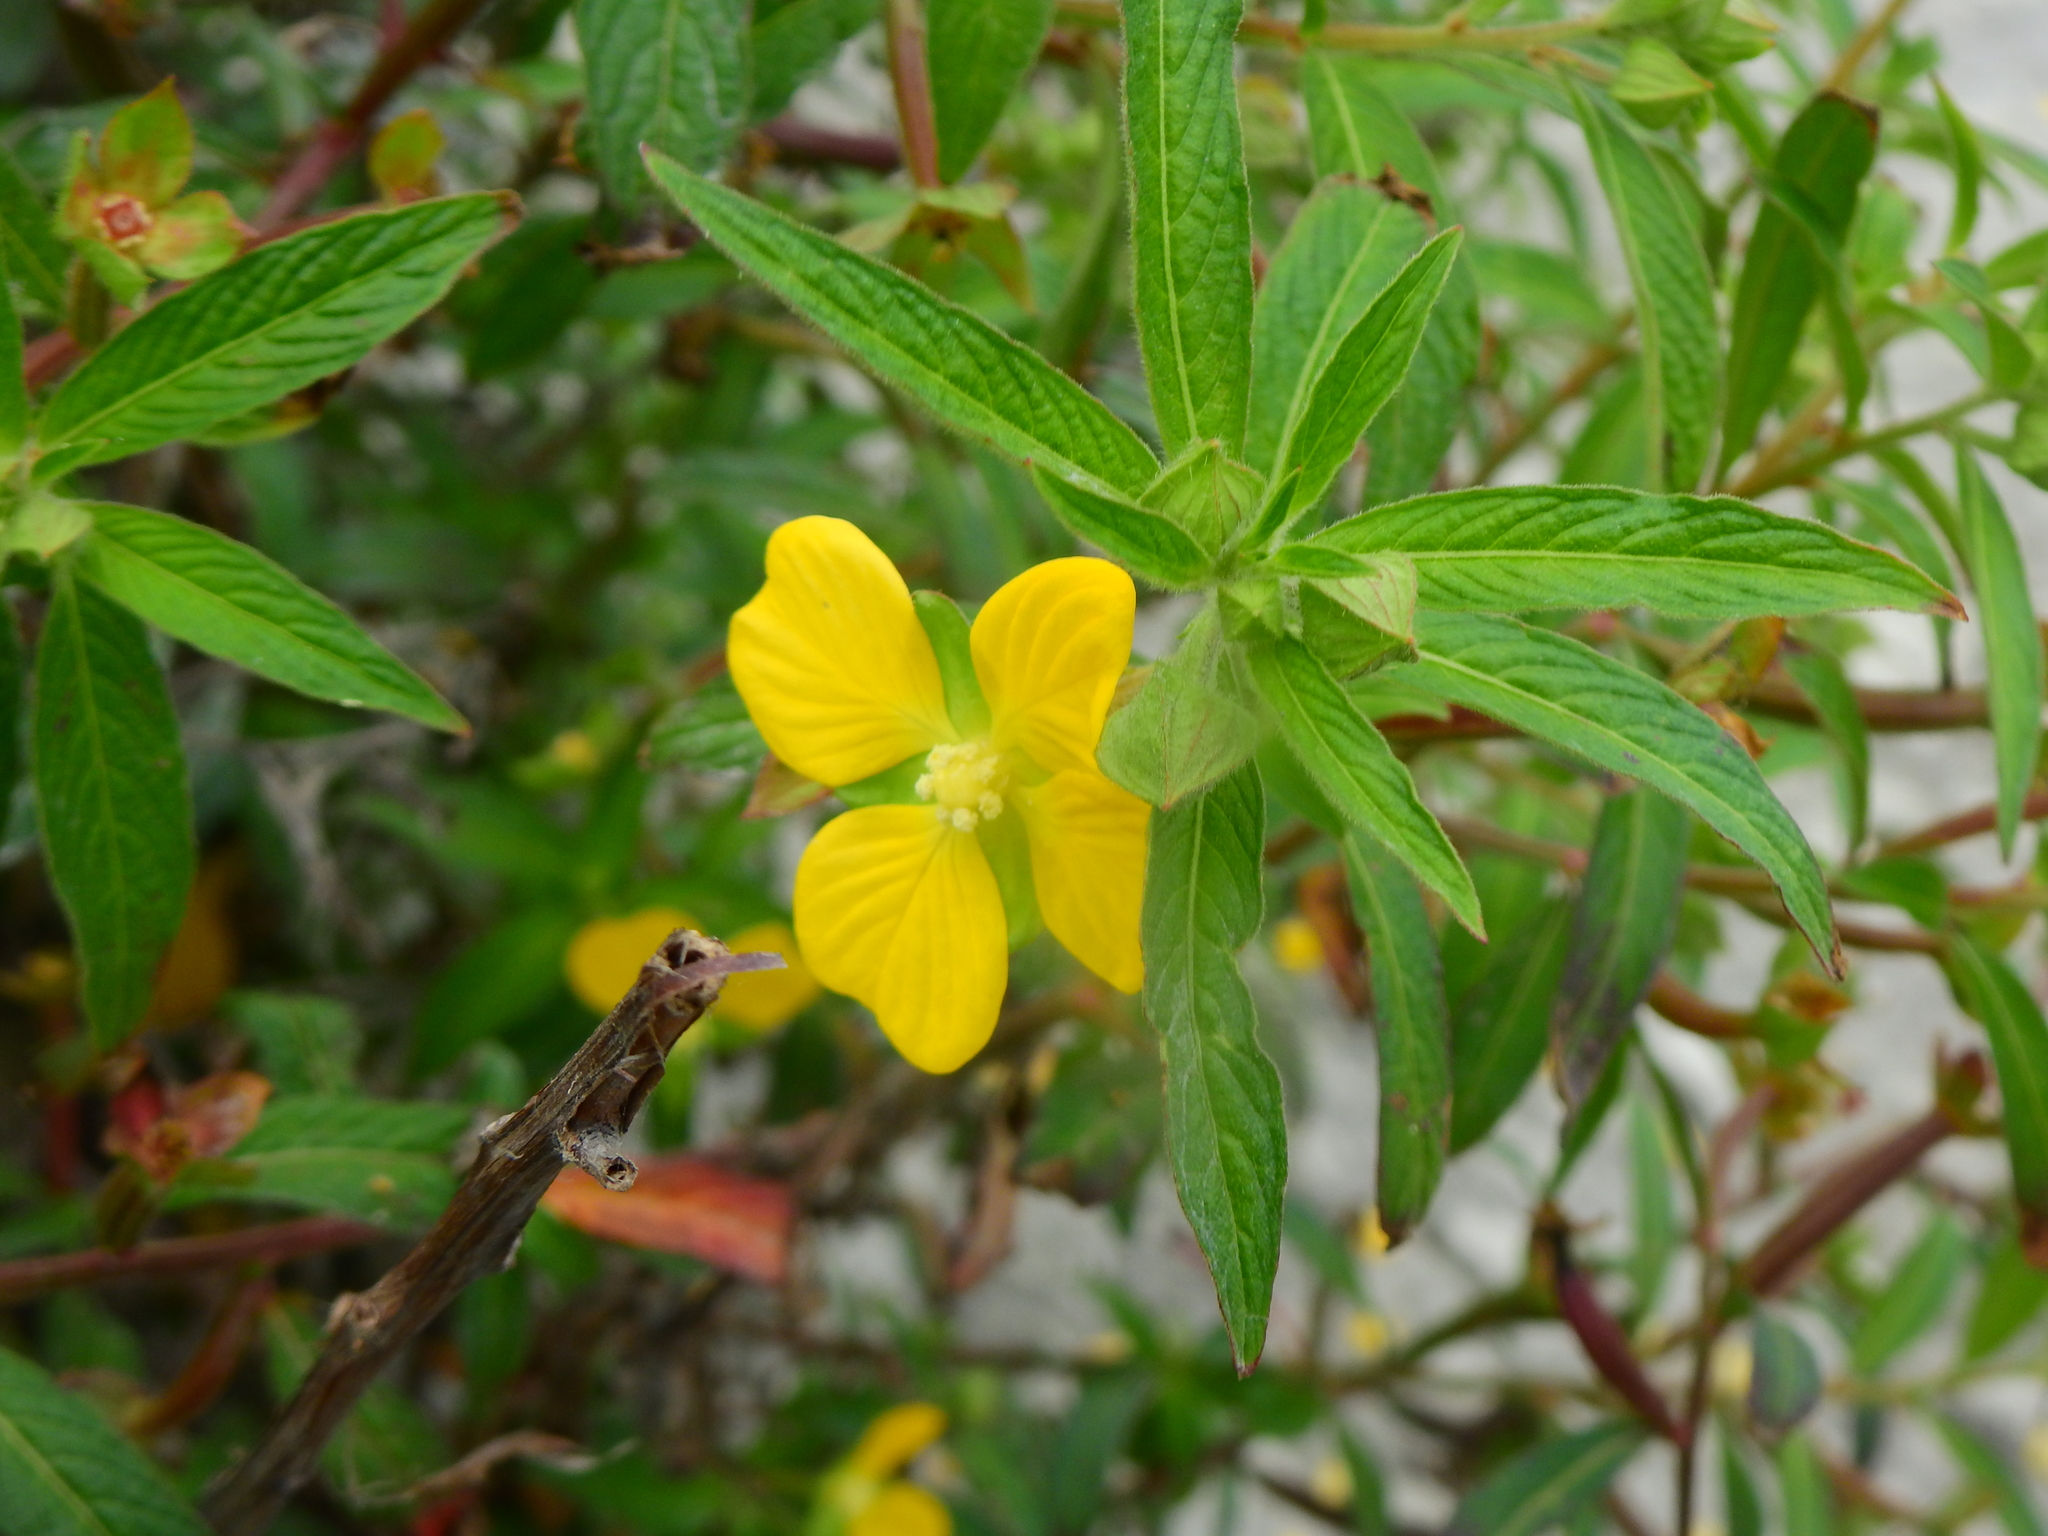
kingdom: Plantae
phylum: Tracheophyta
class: Magnoliopsida
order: Myrtales
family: Onagraceae
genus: Ludwigia
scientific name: Ludwigia octovalvis
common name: Water-primrose
